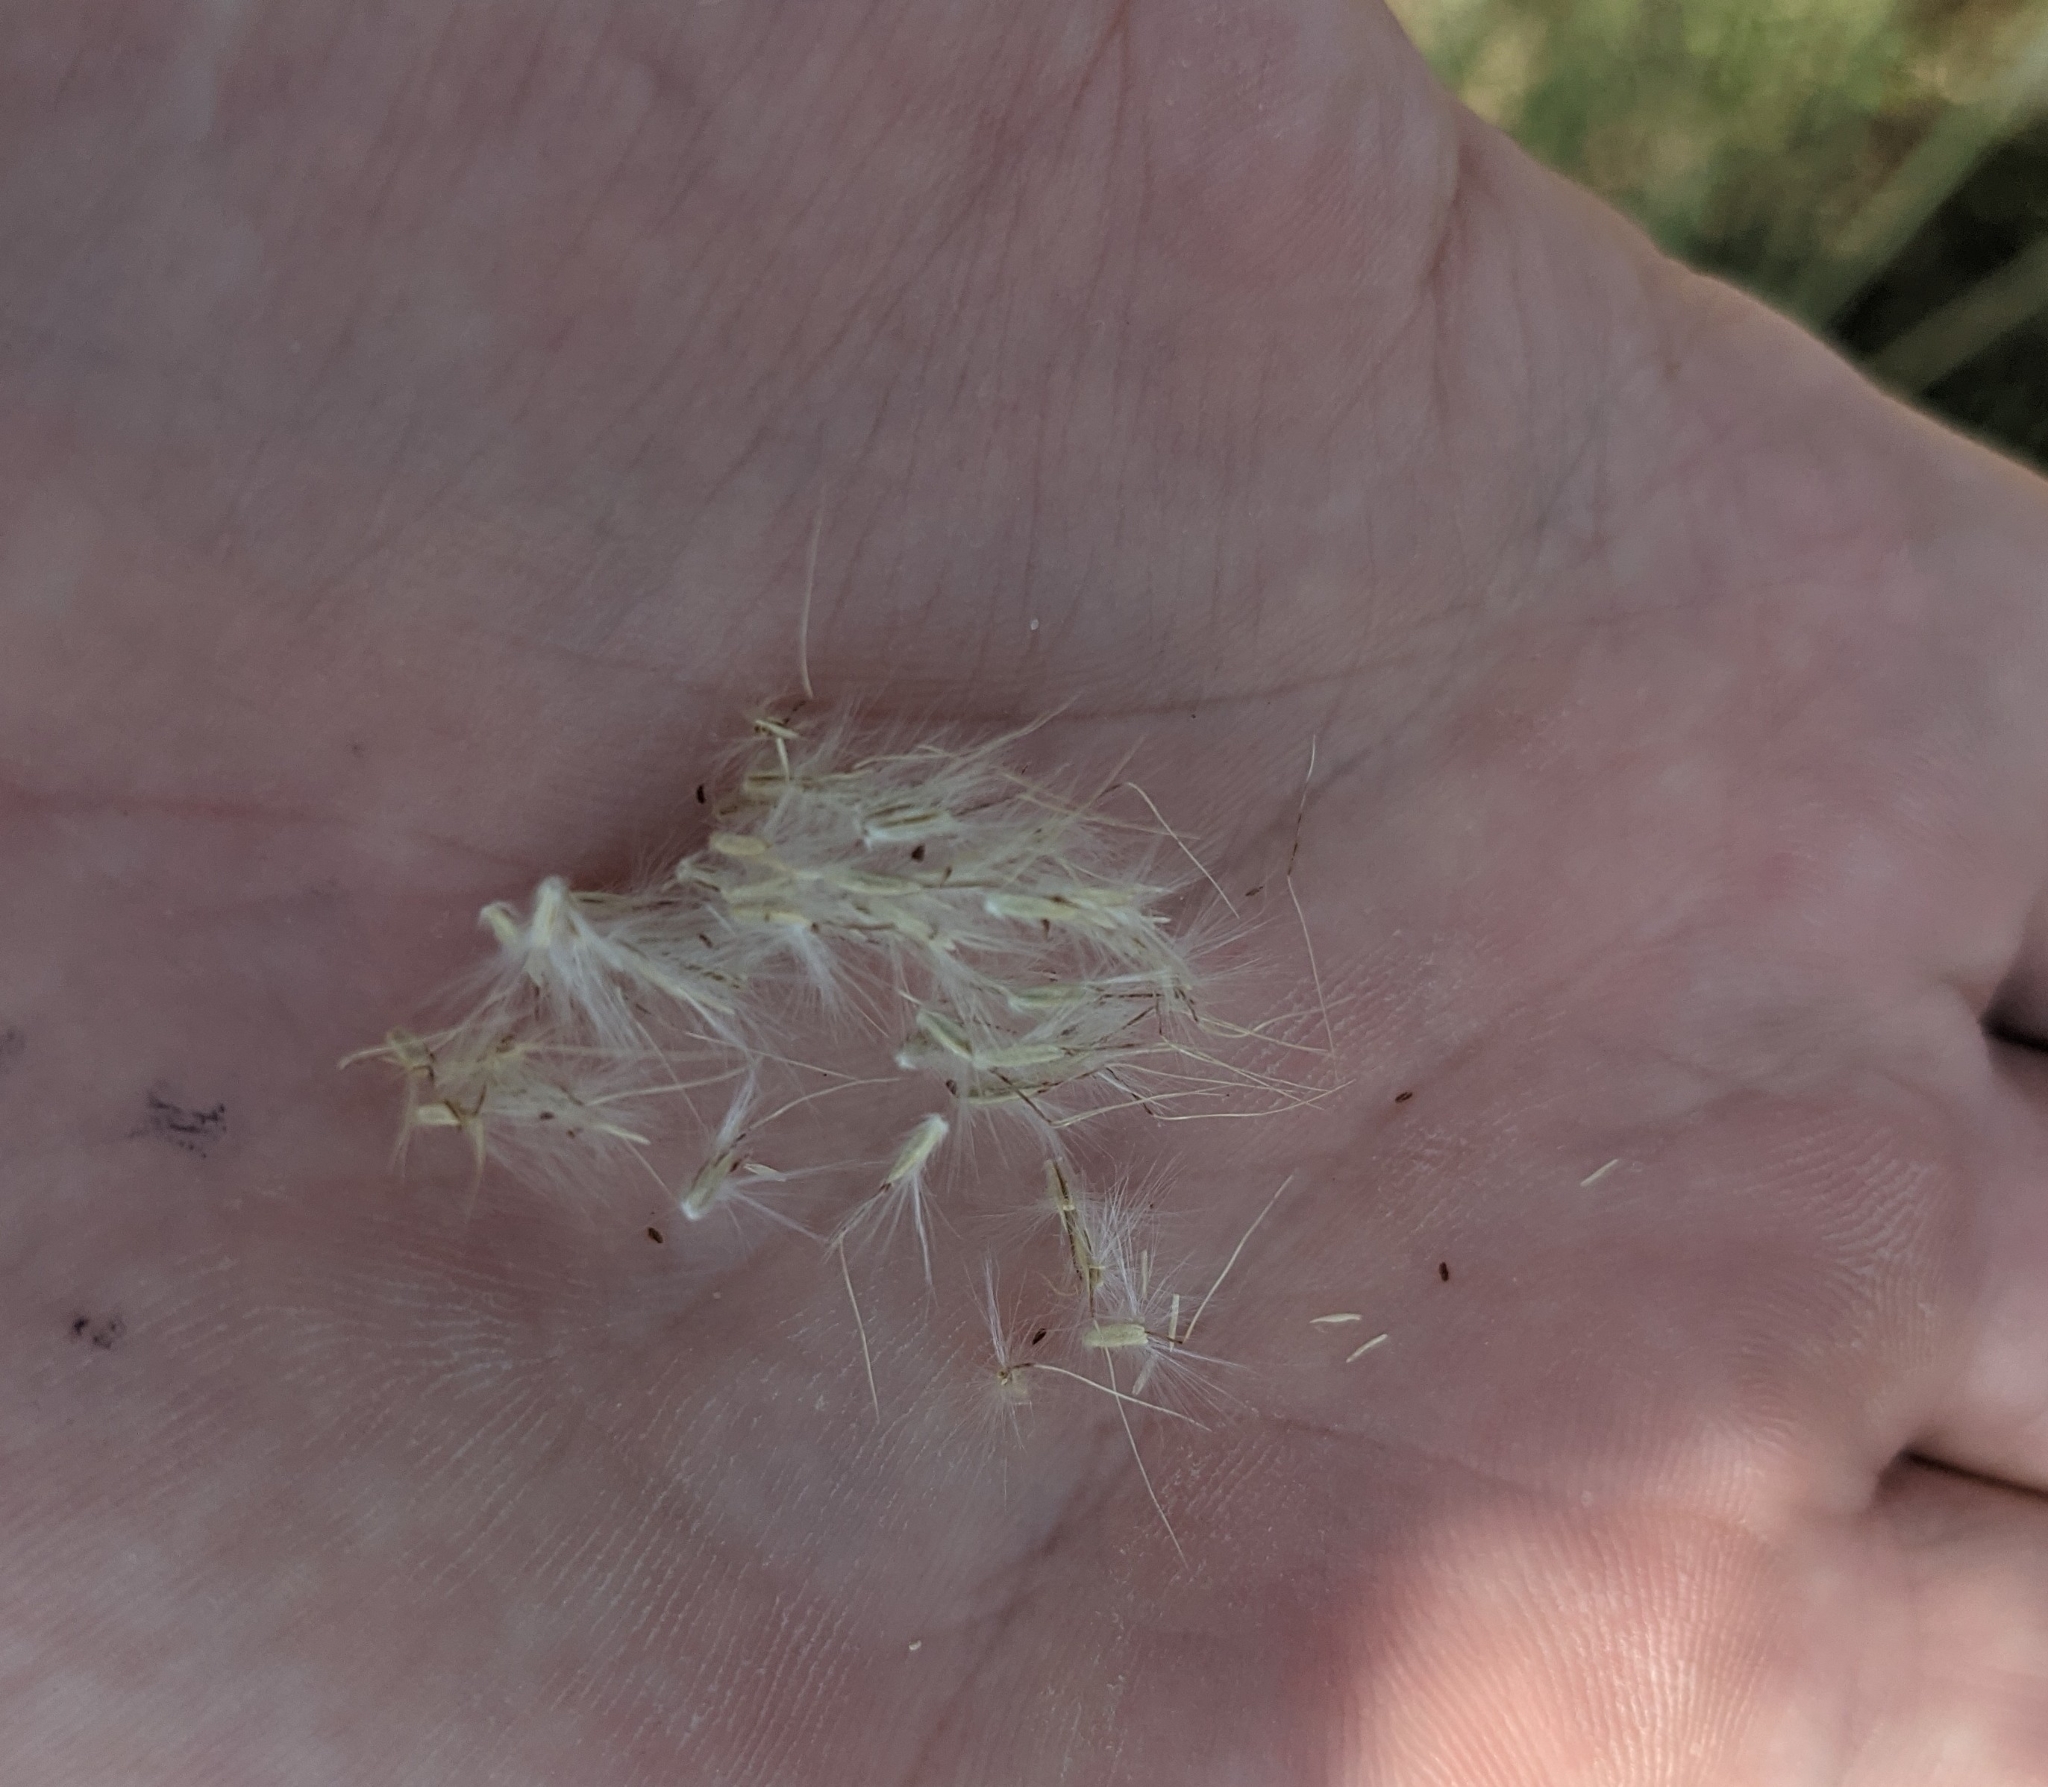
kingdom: Plantae
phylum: Tracheophyta
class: Liliopsida
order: Poales
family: Poaceae
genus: Bothriochloa
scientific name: Bothriochloa barbinodis
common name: Cane bluestem
